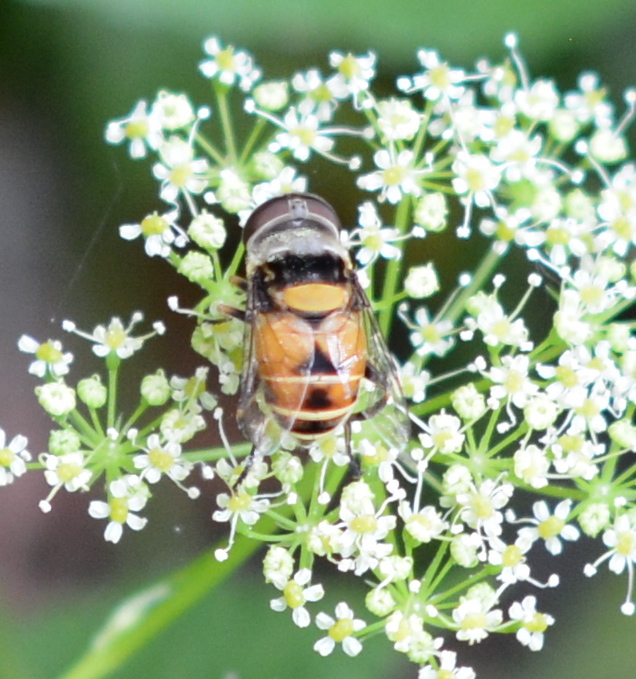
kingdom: Animalia
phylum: Arthropoda
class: Insecta
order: Diptera
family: Syrphidae
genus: Palpada
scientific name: Palpada pusilla
